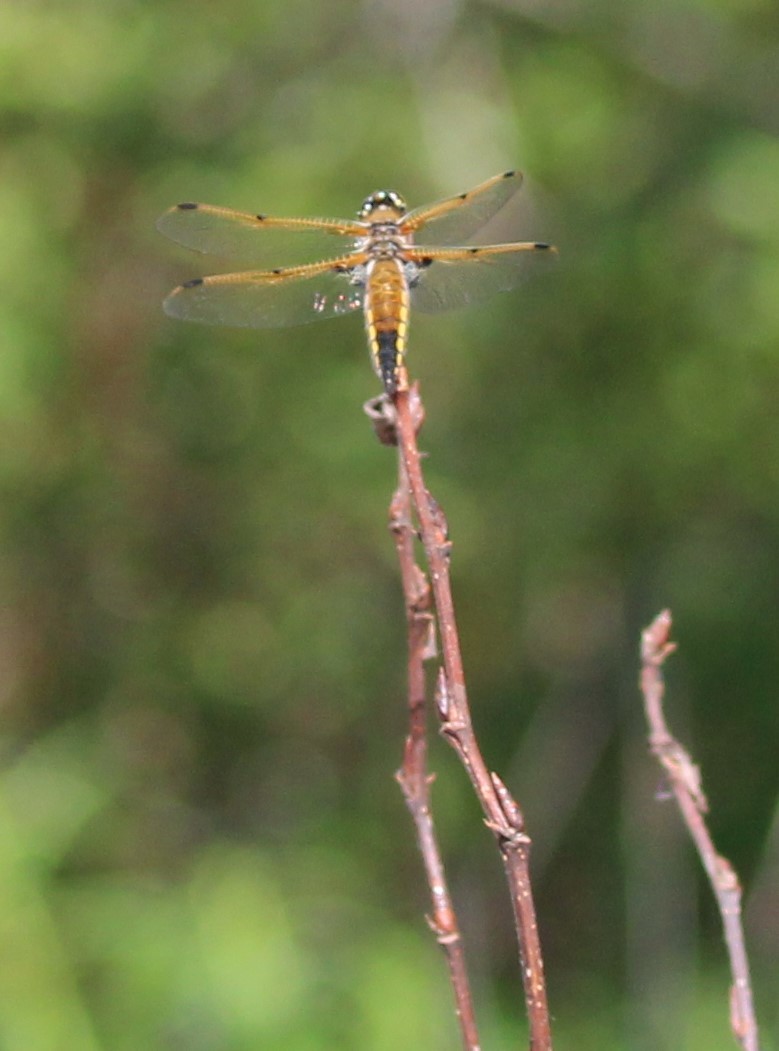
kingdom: Animalia
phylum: Arthropoda
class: Insecta
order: Odonata
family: Libellulidae
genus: Libellula
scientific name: Libellula quadrimaculata
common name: Four-spotted chaser
